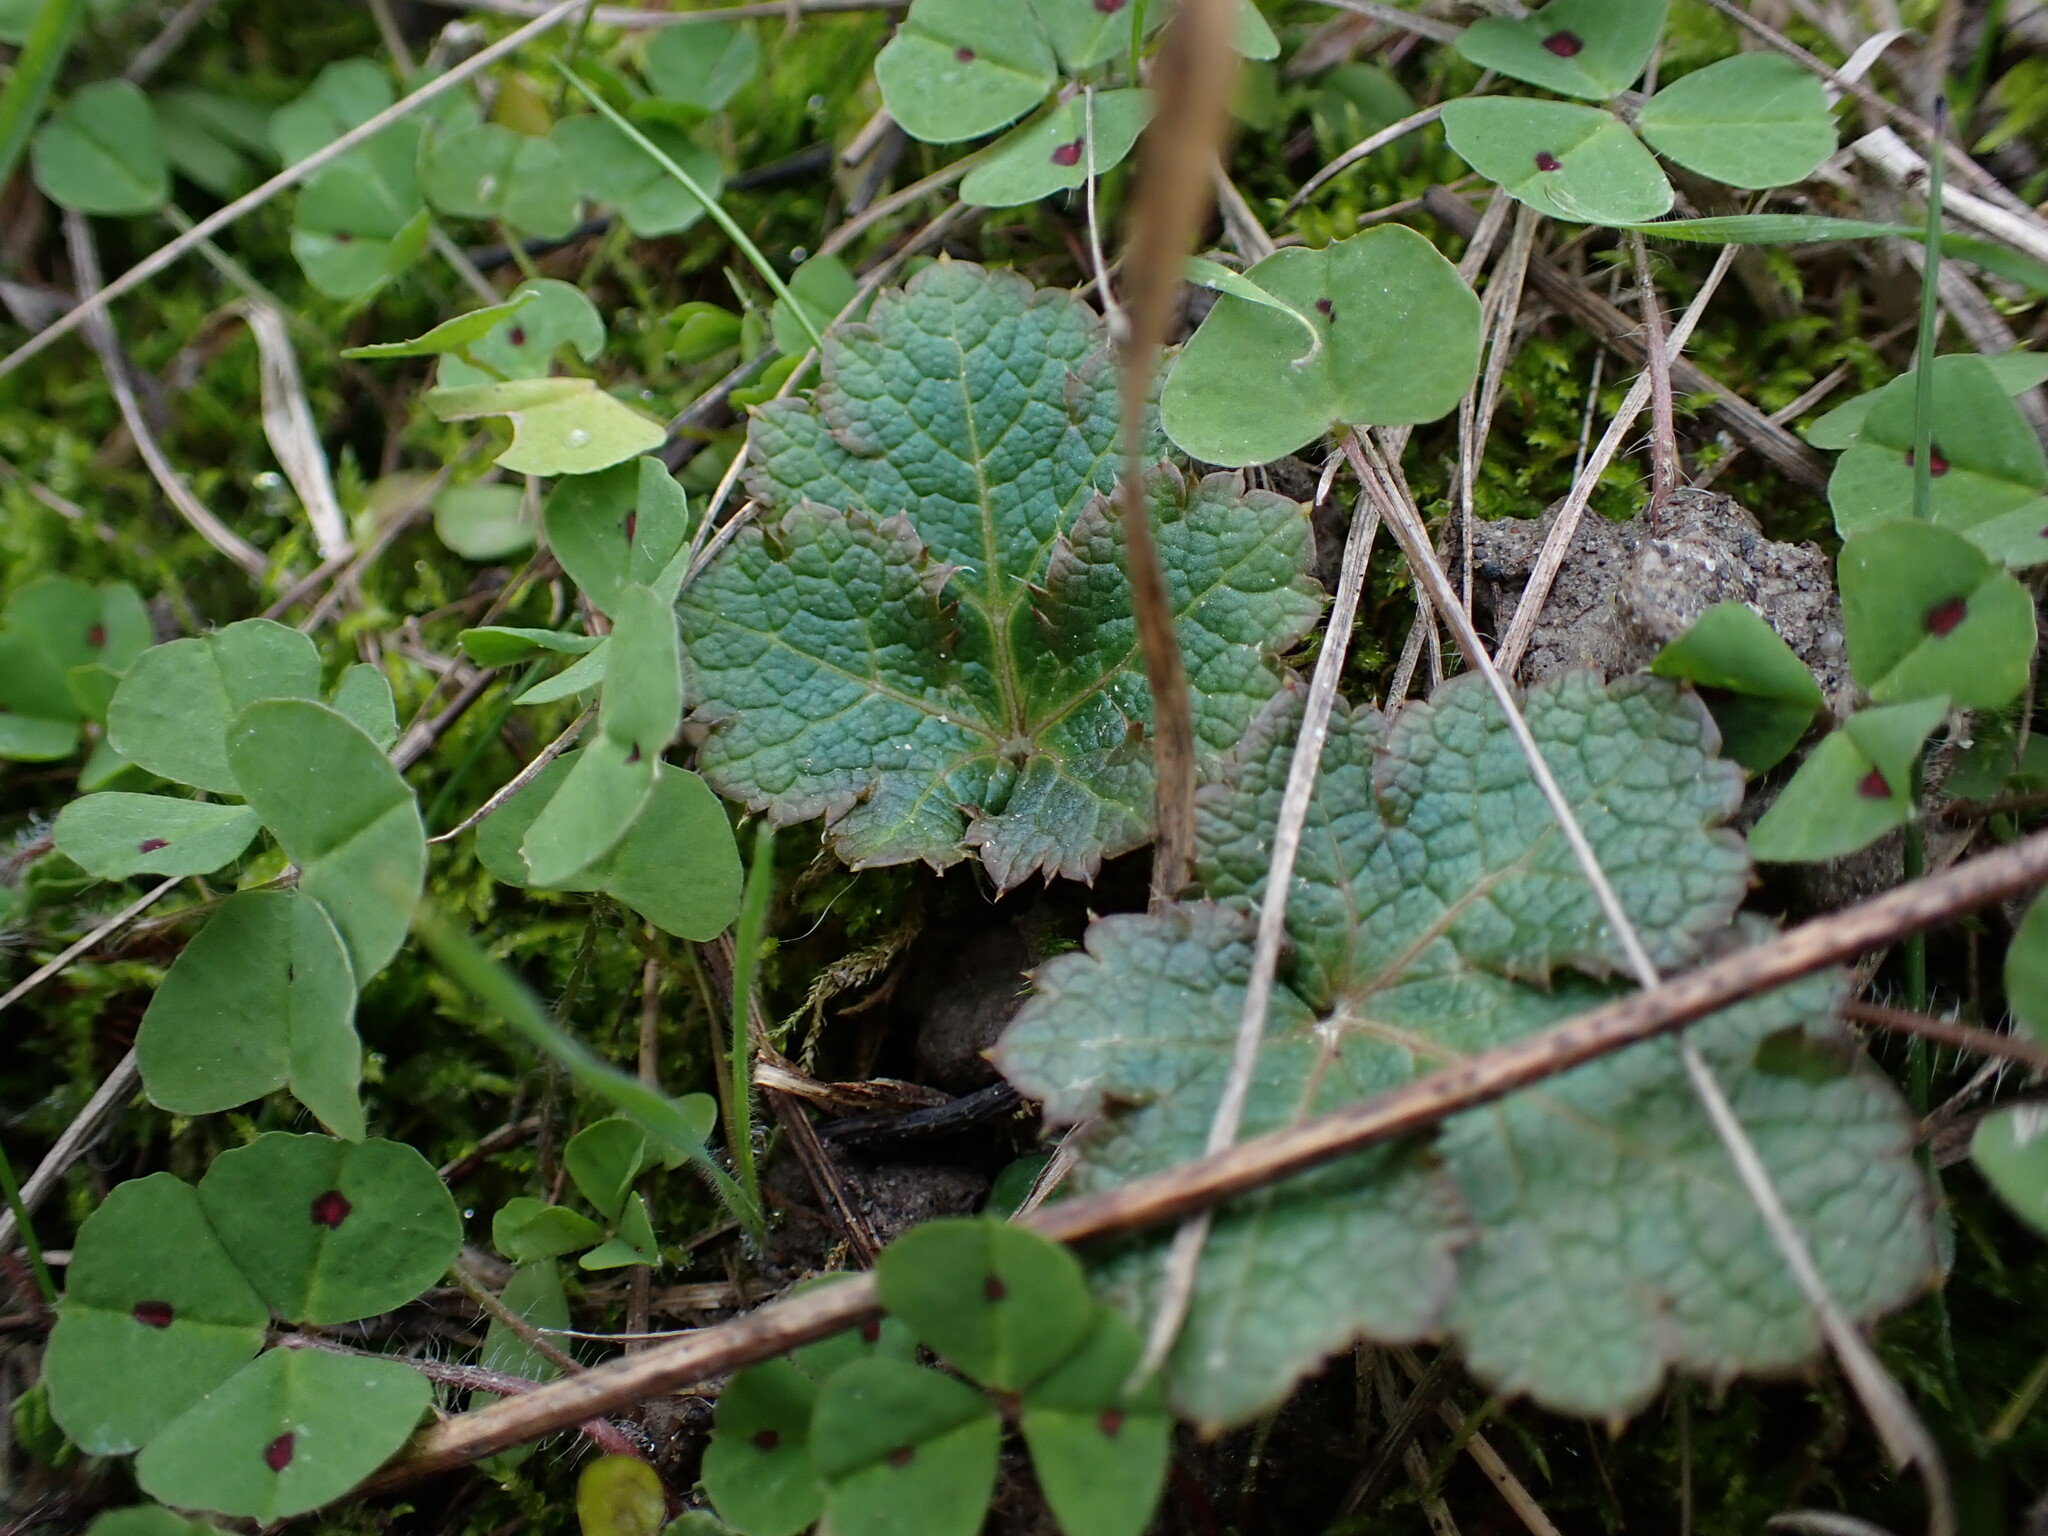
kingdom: Plantae
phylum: Tracheophyta
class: Magnoliopsida
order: Apiales
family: Apiaceae
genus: Sanicula
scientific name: Sanicula crassicaulis
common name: Western snakeroot
